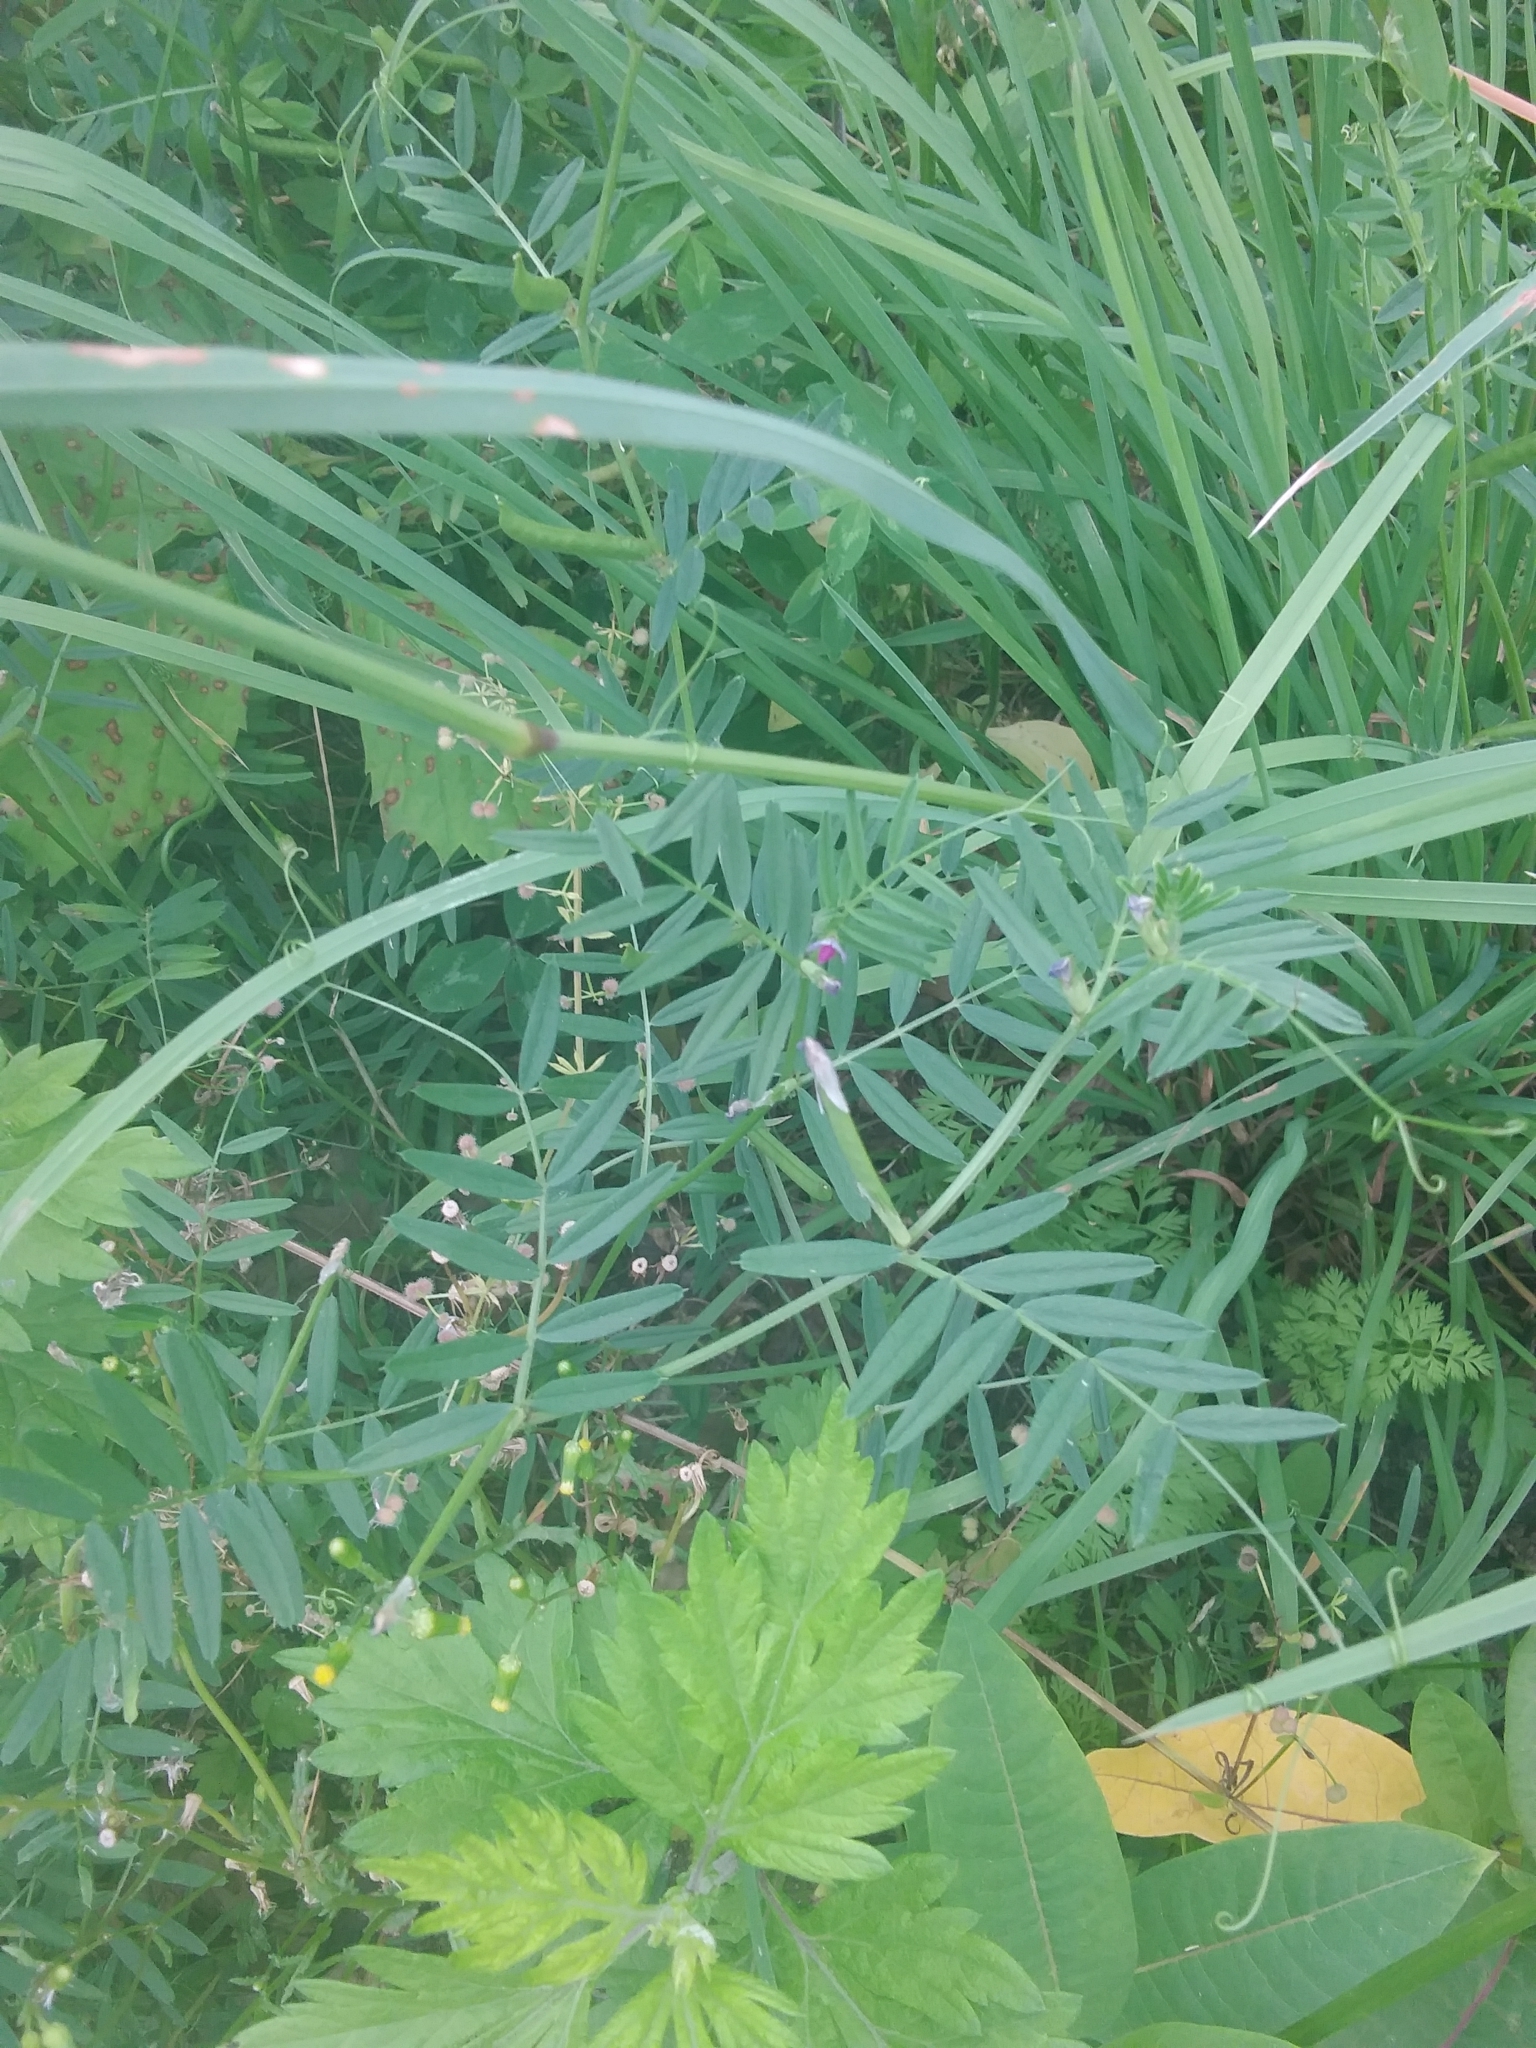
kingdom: Plantae
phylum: Tracheophyta
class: Magnoliopsida
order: Fabales
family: Fabaceae
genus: Vicia
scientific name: Vicia sativa
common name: Garden vetch
